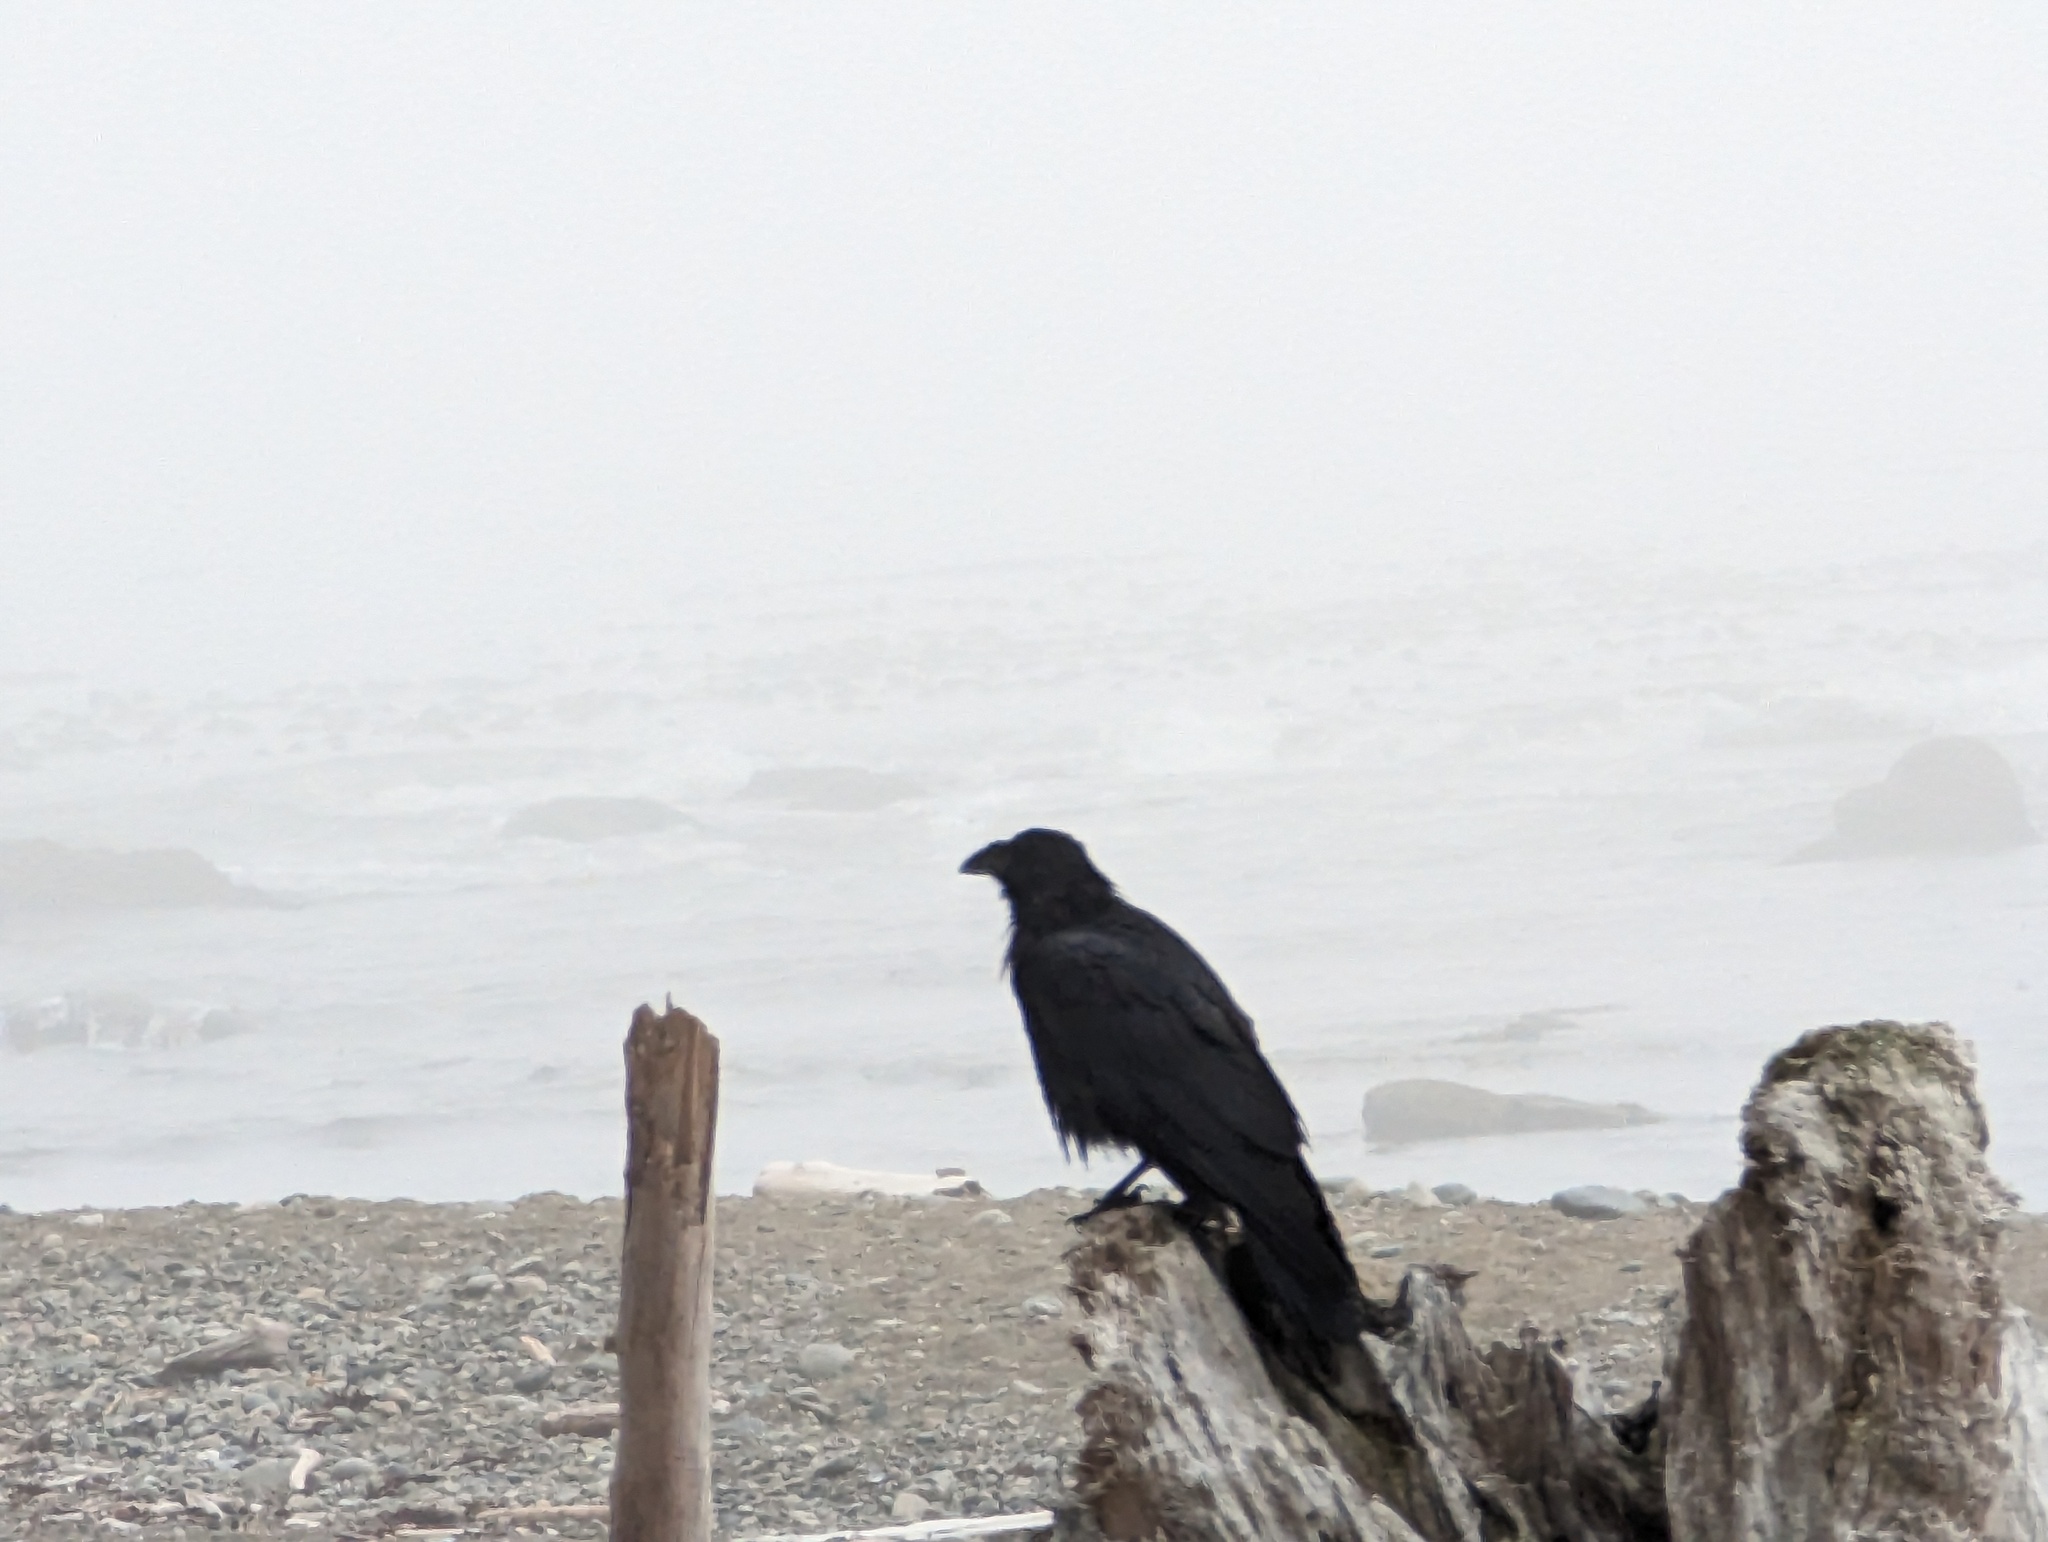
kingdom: Animalia
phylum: Chordata
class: Aves
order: Passeriformes
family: Corvidae
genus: Corvus
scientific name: Corvus corax
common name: Common raven
